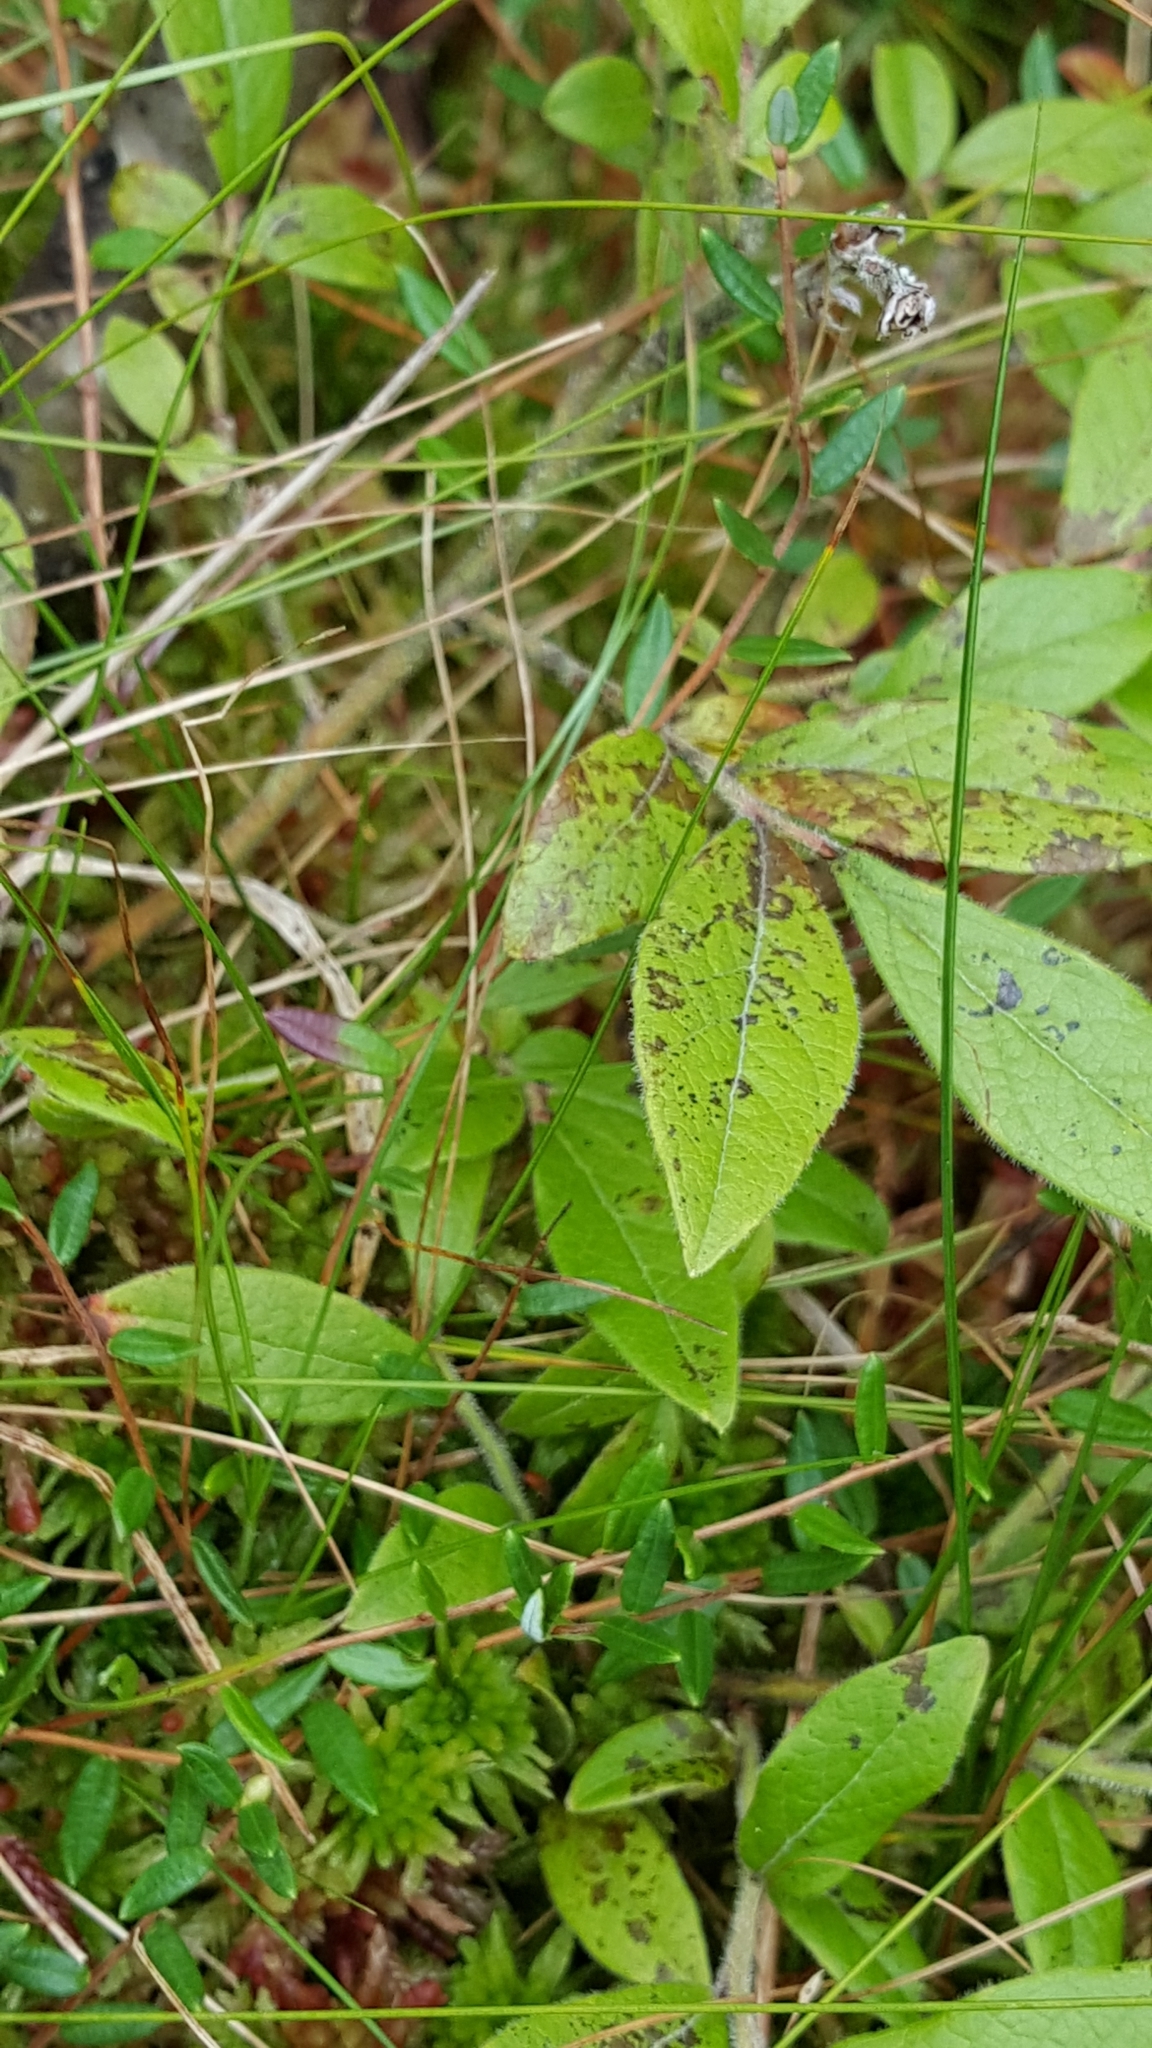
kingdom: Plantae
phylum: Tracheophyta
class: Magnoliopsida
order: Ericales
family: Ericaceae
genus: Vaccinium
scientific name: Vaccinium myrtilloides
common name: Canada blueberry
